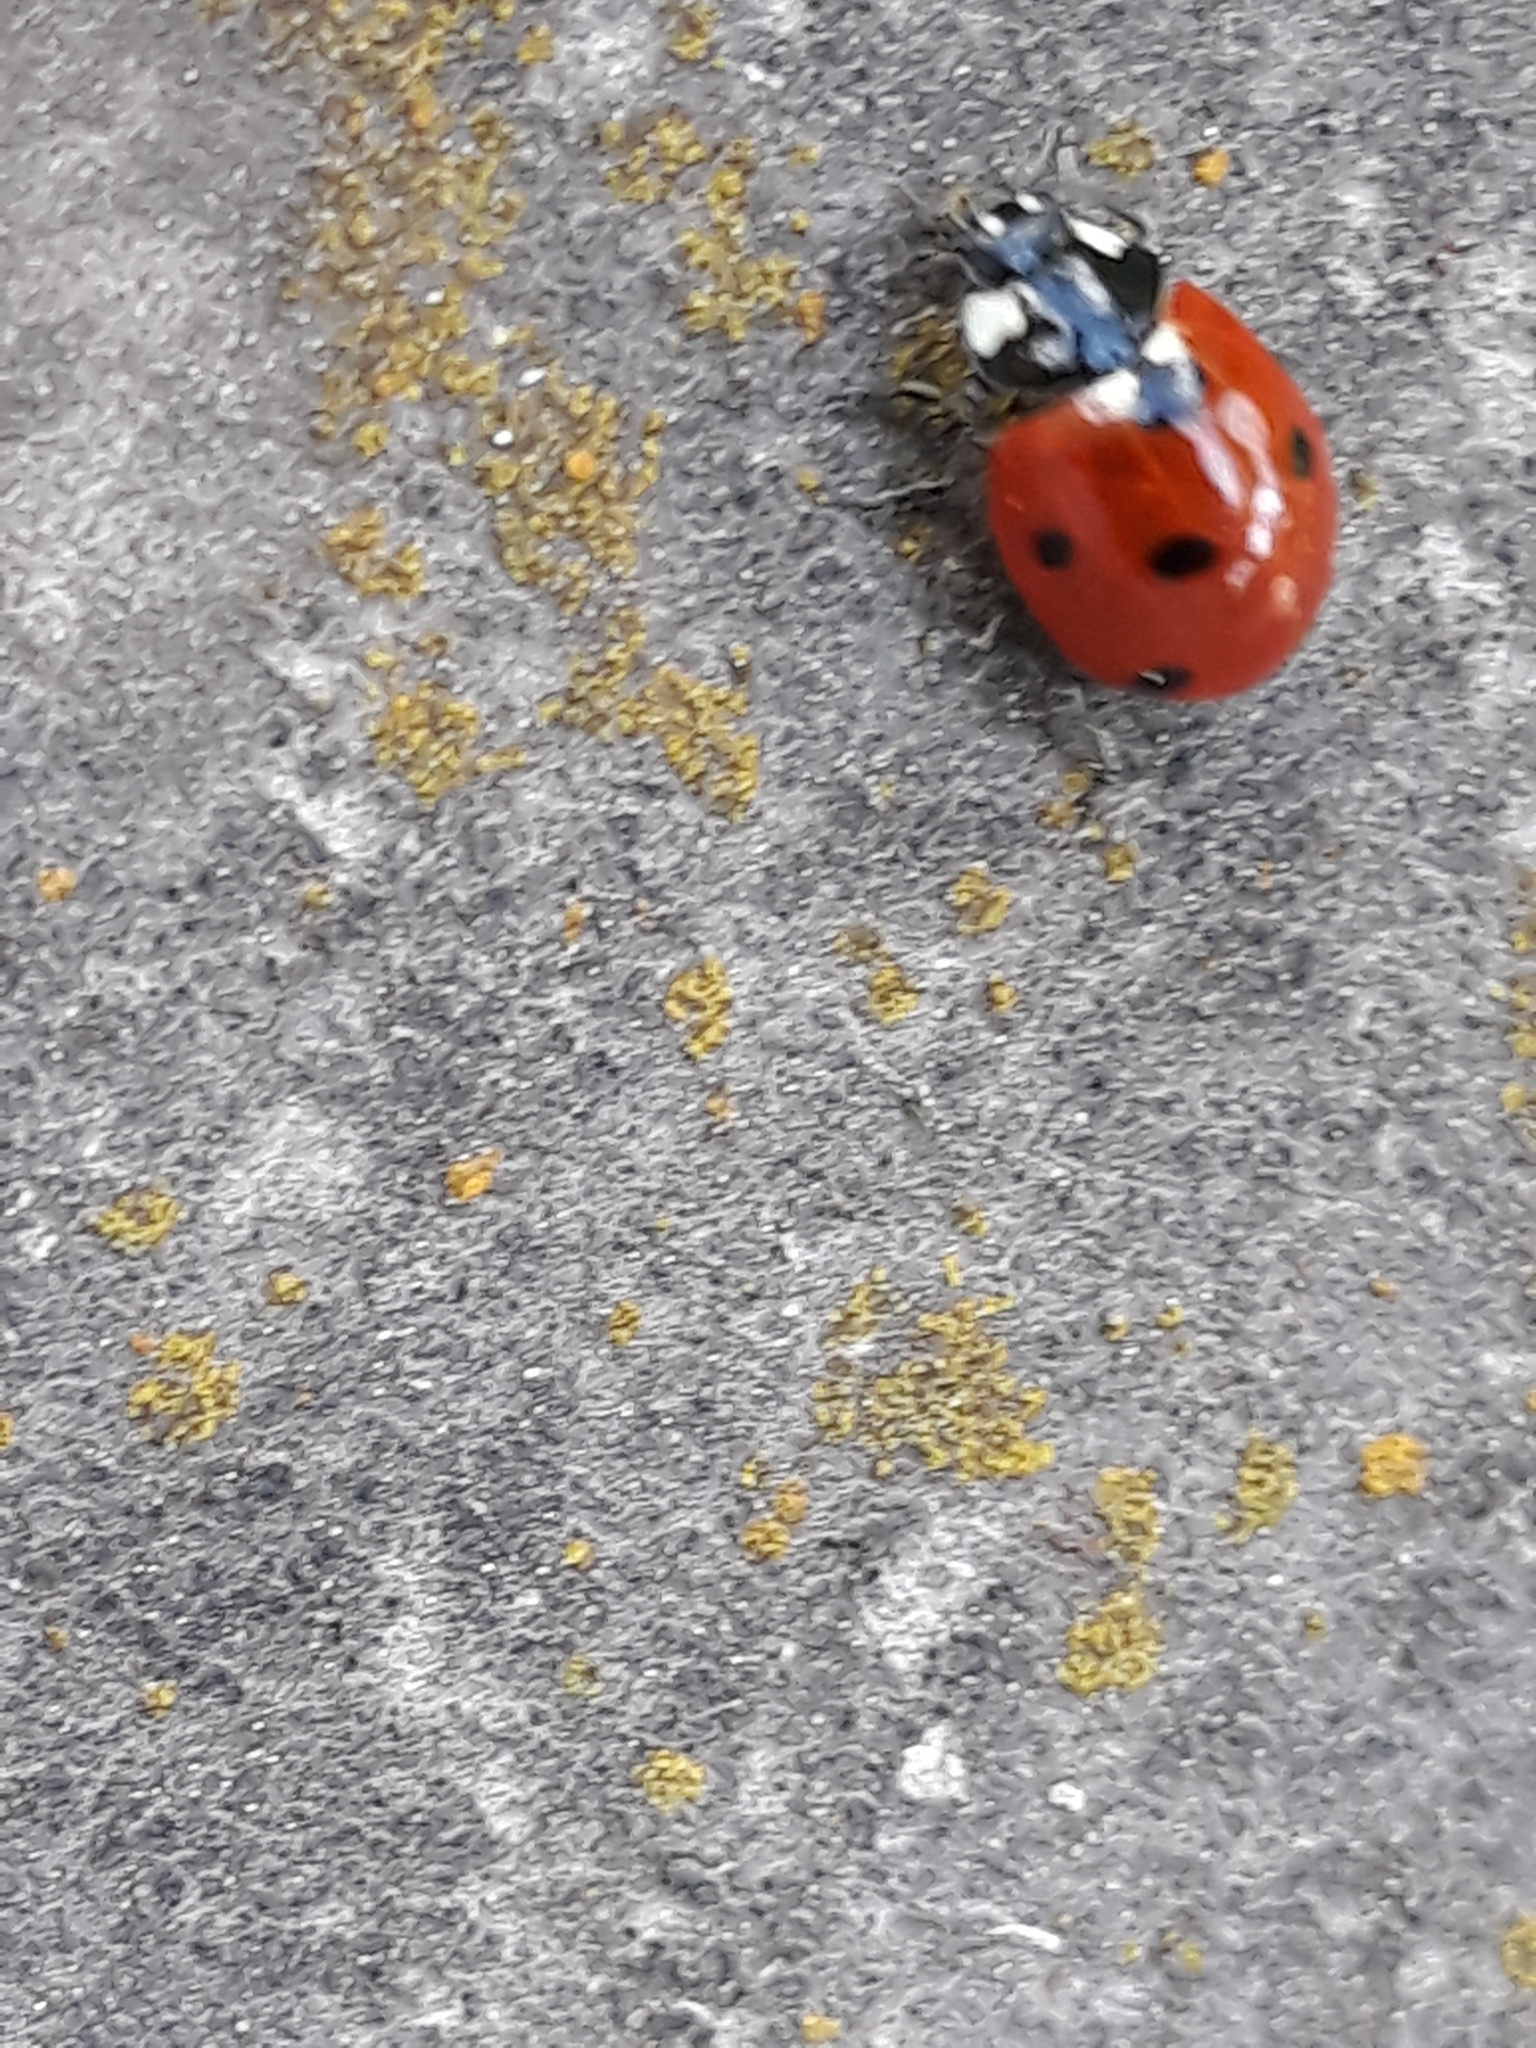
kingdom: Animalia
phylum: Arthropoda
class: Insecta
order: Coleoptera
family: Coccinellidae
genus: Coccinella
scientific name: Coccinella septempunctata
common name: Sevenspotted lady beetle
